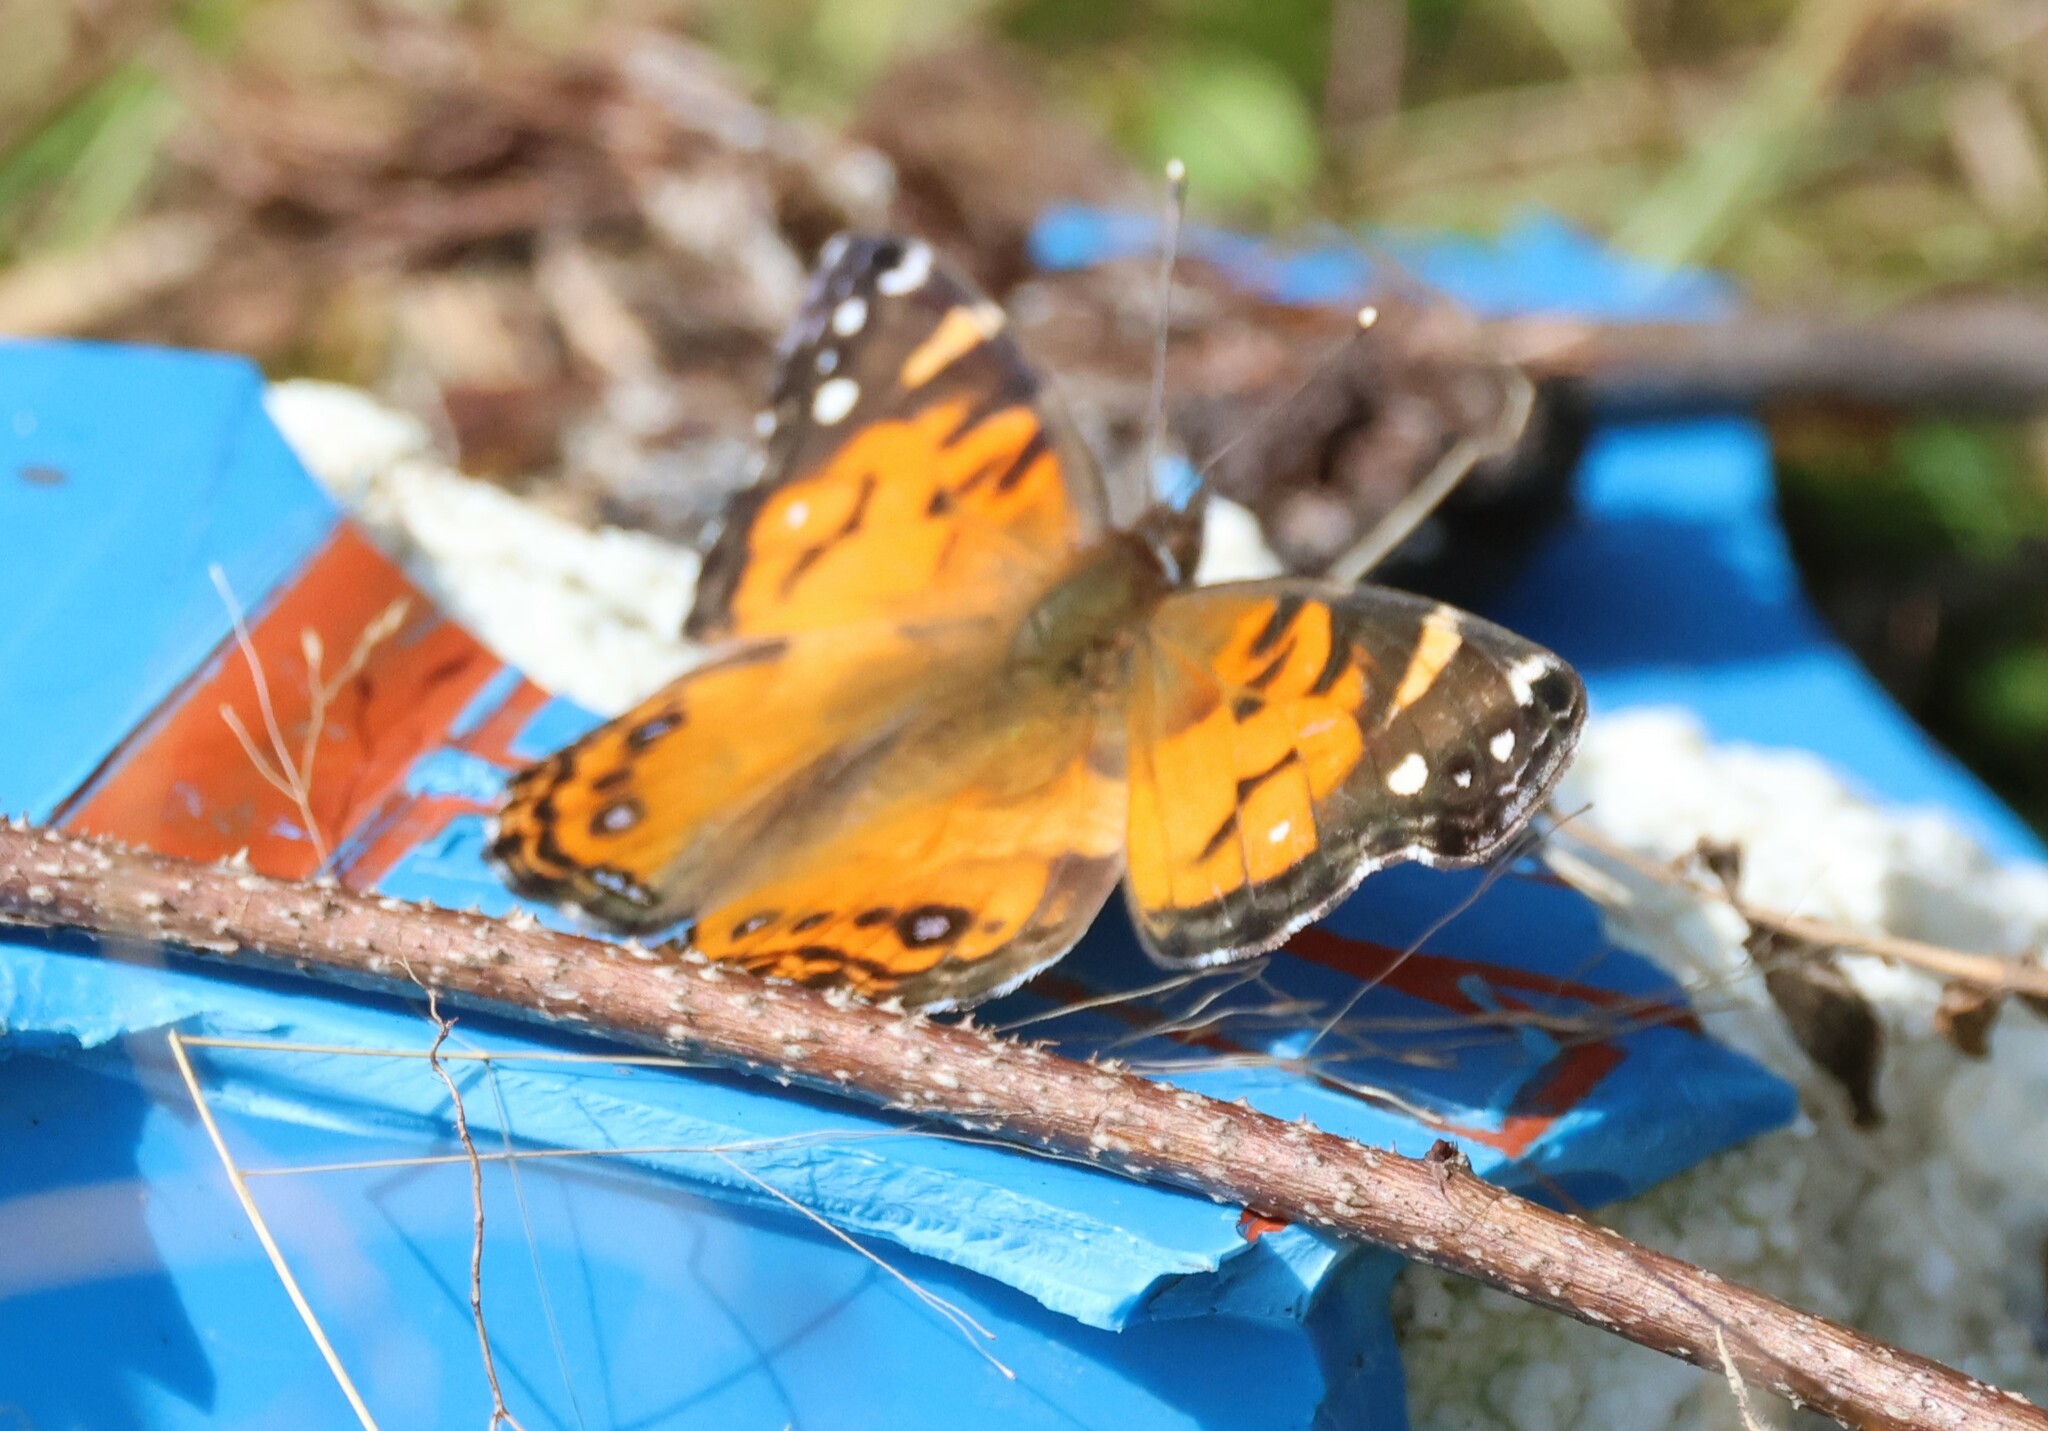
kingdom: Animalia
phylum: Arthropoda
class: Insecta
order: Lepidoptera
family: Nymphalidae
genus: Vanessa
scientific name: Vanessa virginiensis
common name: American lady
